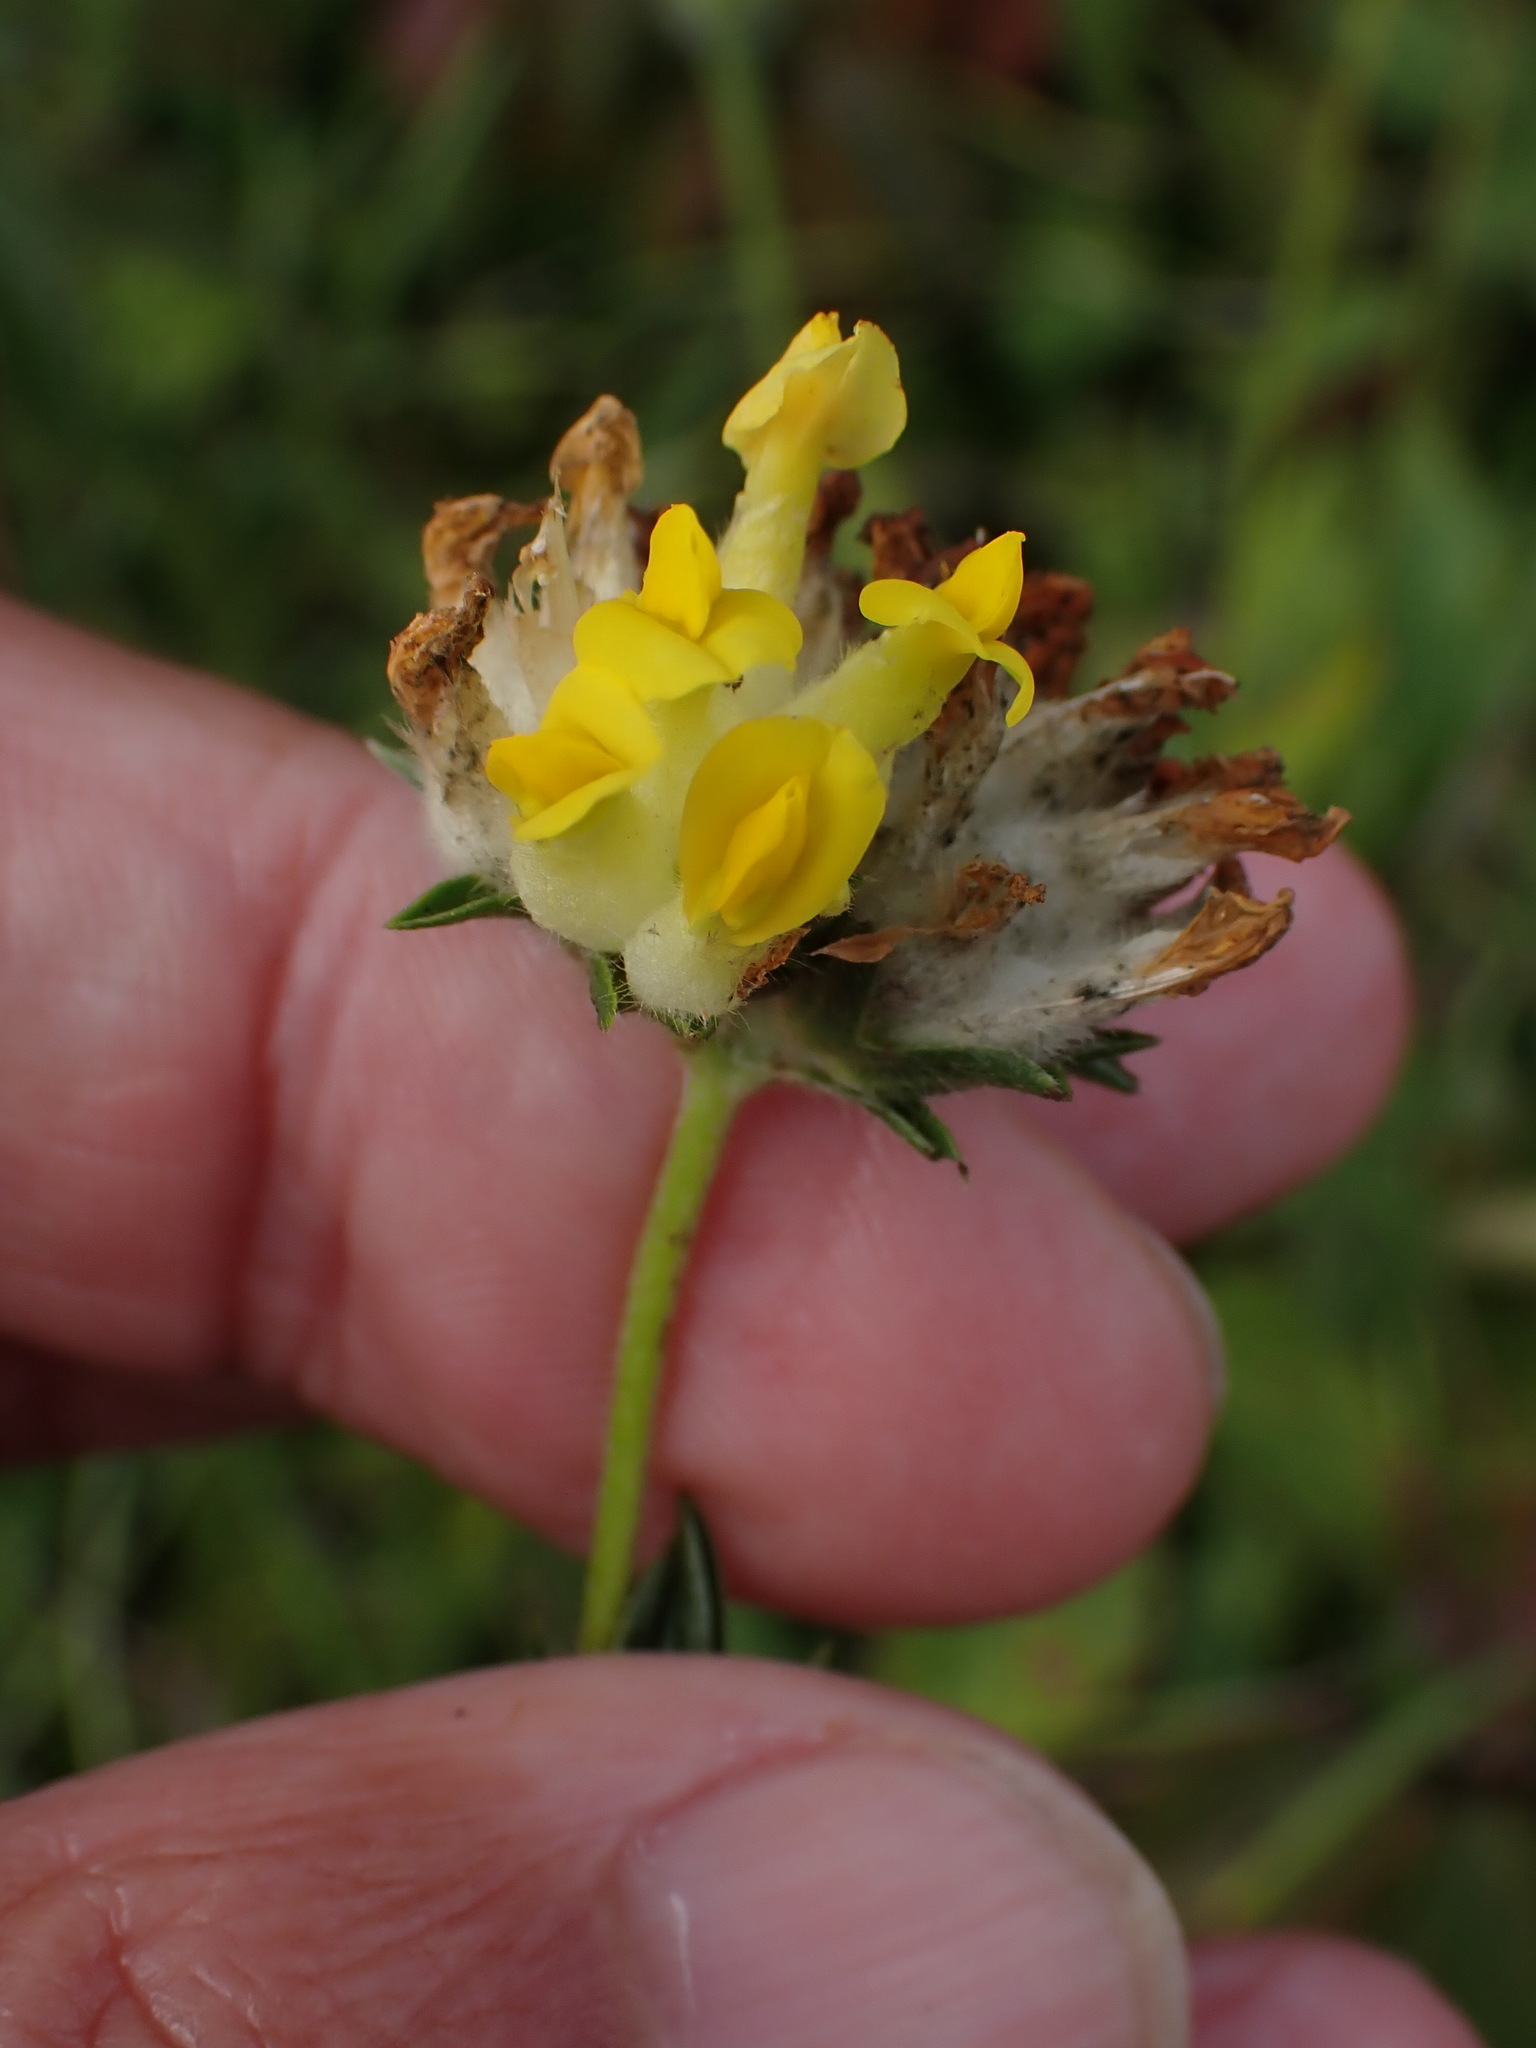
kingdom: Plantae
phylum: Tracheophyta
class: Magnoliopsida
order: Fabales
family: Fabaceae
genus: Anthyllis
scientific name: Anthyllis vulneraria
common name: Kidney vetch
